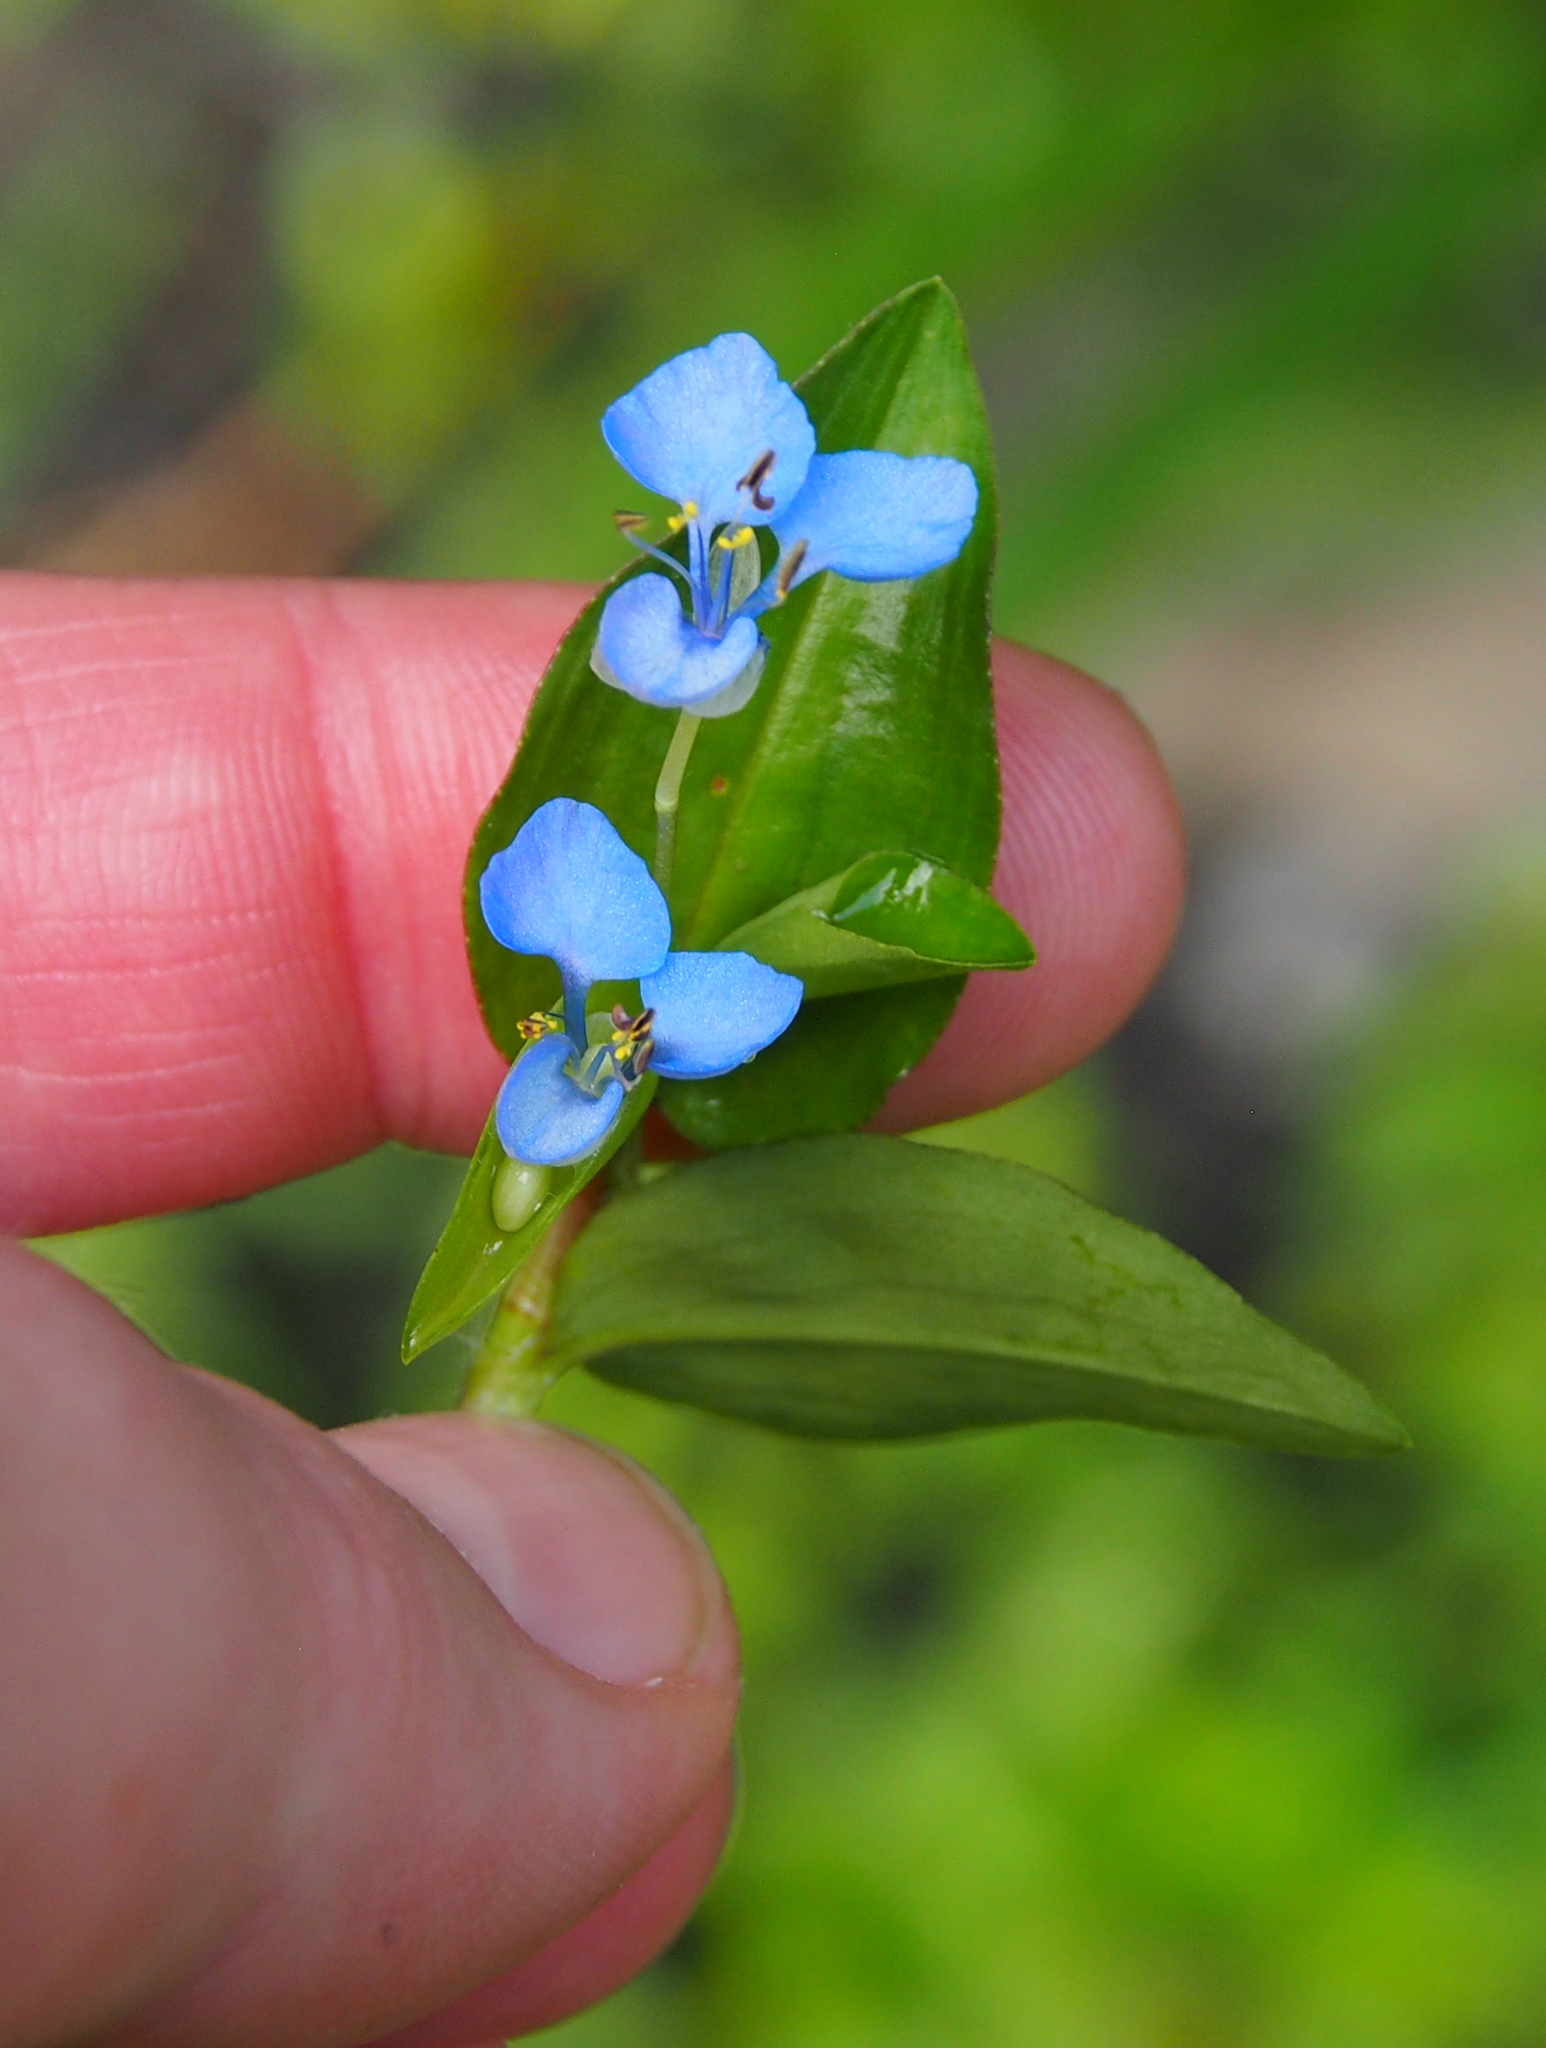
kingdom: Plantae
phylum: Tracheophyta
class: Liliopsida
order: Commelinales
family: Commelinaceae
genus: Commelina
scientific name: Commelina diffusa
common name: Climbing dayflower
